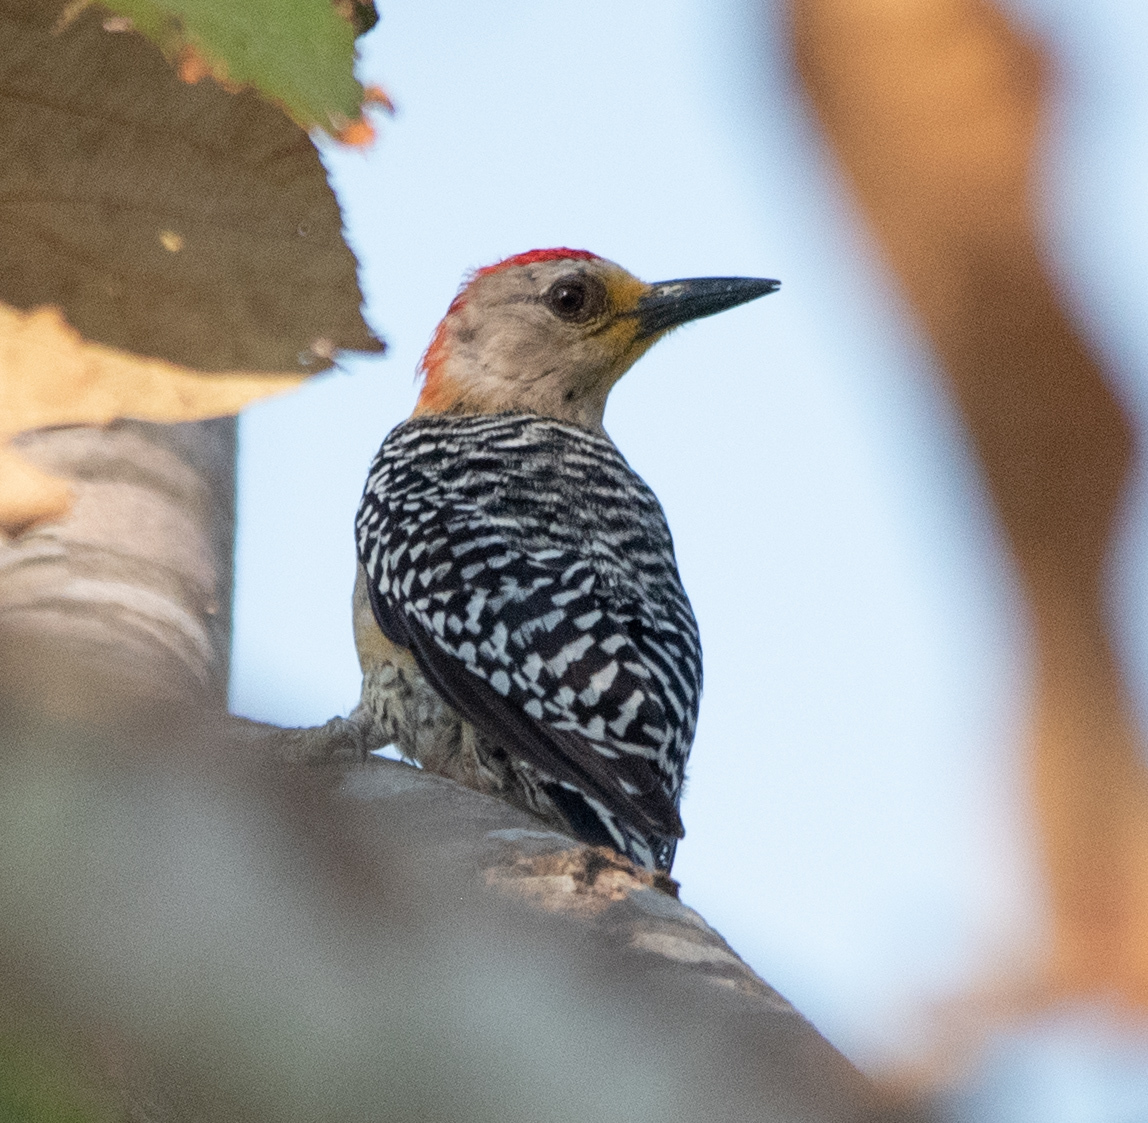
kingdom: Animalia
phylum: Chordata
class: Aves
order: Piciformes
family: Picidae
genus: Melanerpes
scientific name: Melanerpes rubricapillus
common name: Red-crowned woodpecker
